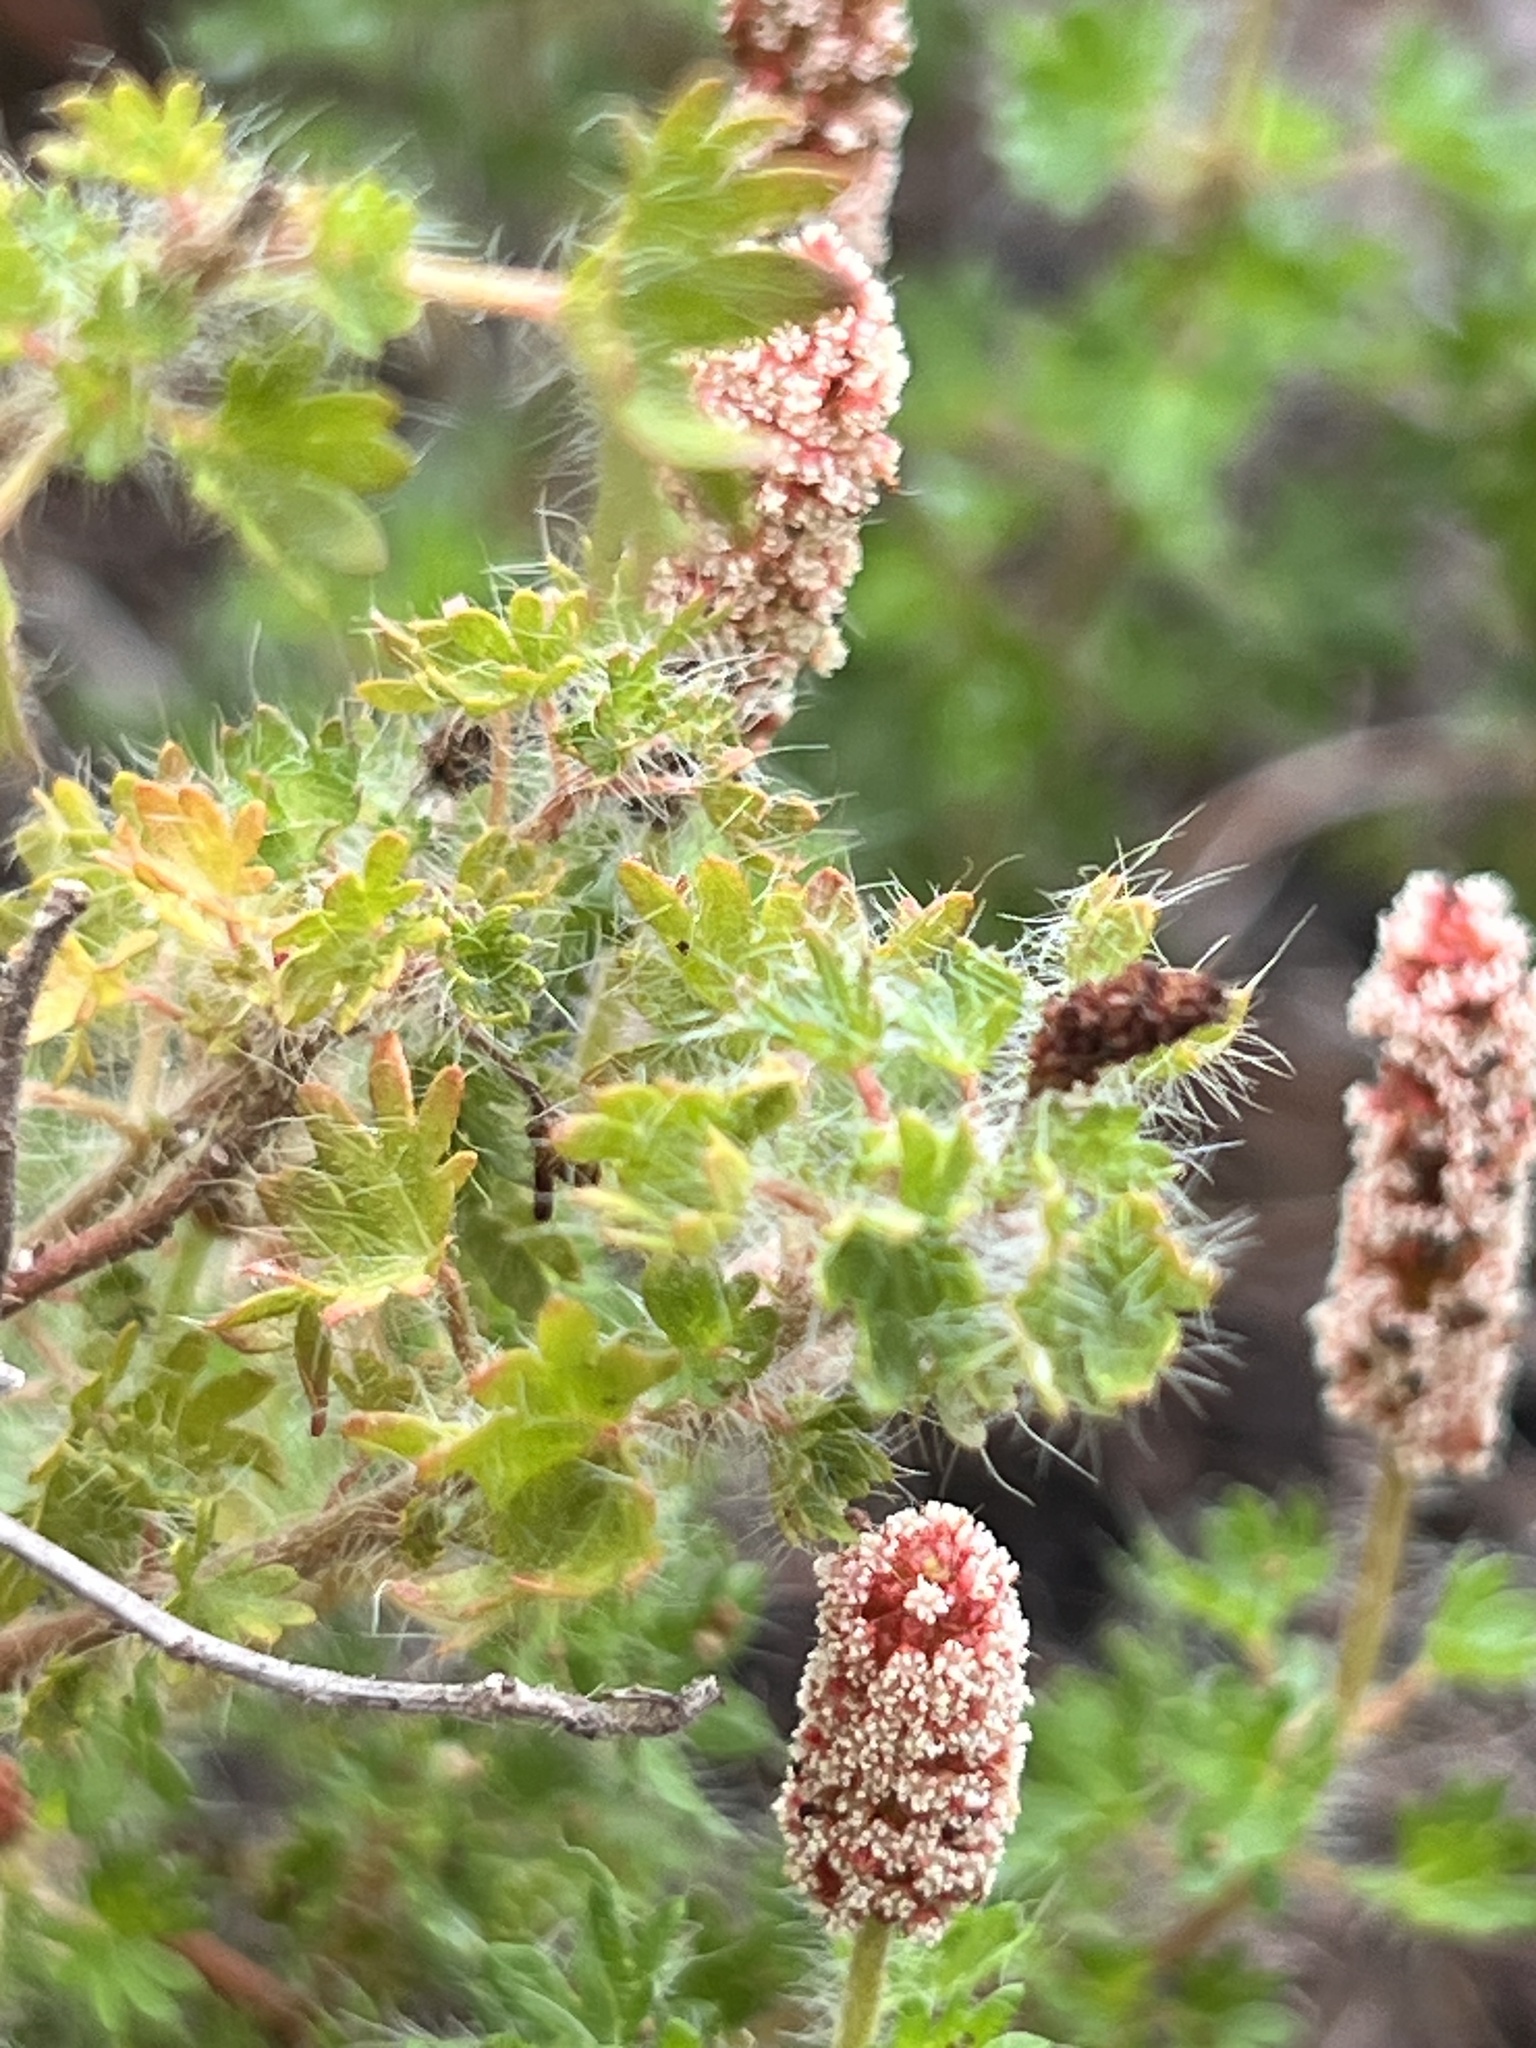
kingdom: Plantae
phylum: Tracheophyta
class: Magnoliopsida
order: Malpighiales
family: Euphorbiaceae
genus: Acalypha
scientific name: Acalypha radians
